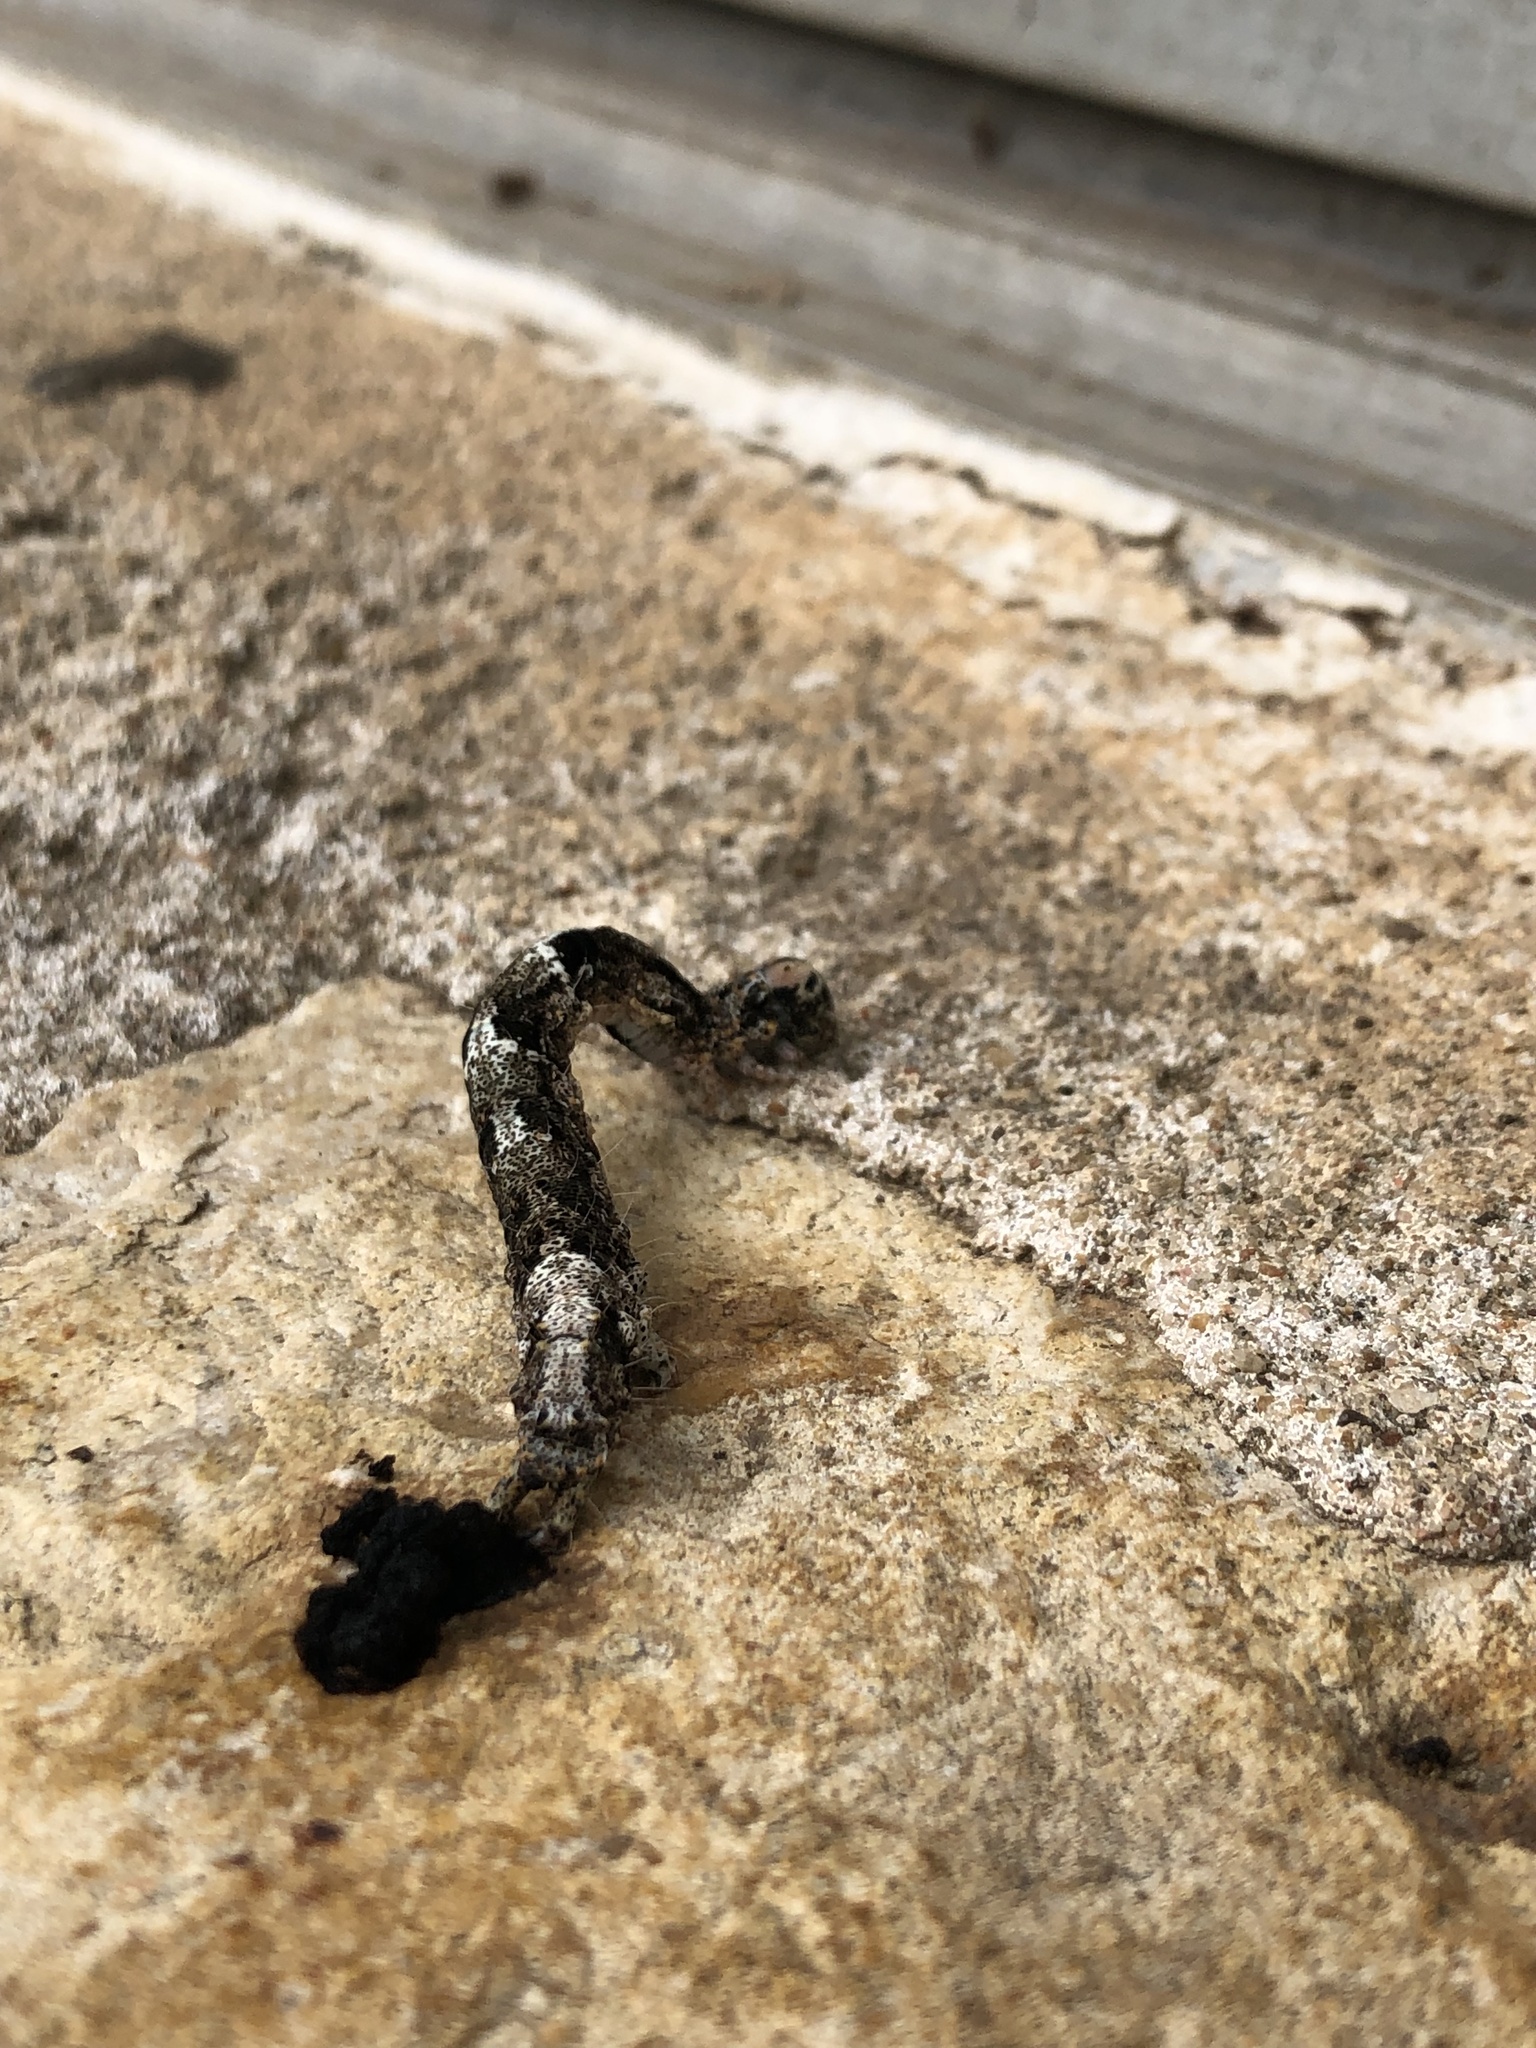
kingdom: Animalia
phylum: Arthropoda
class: Insecta
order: Lepidoptera
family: Erebidae
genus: Metria
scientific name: Metria amella
